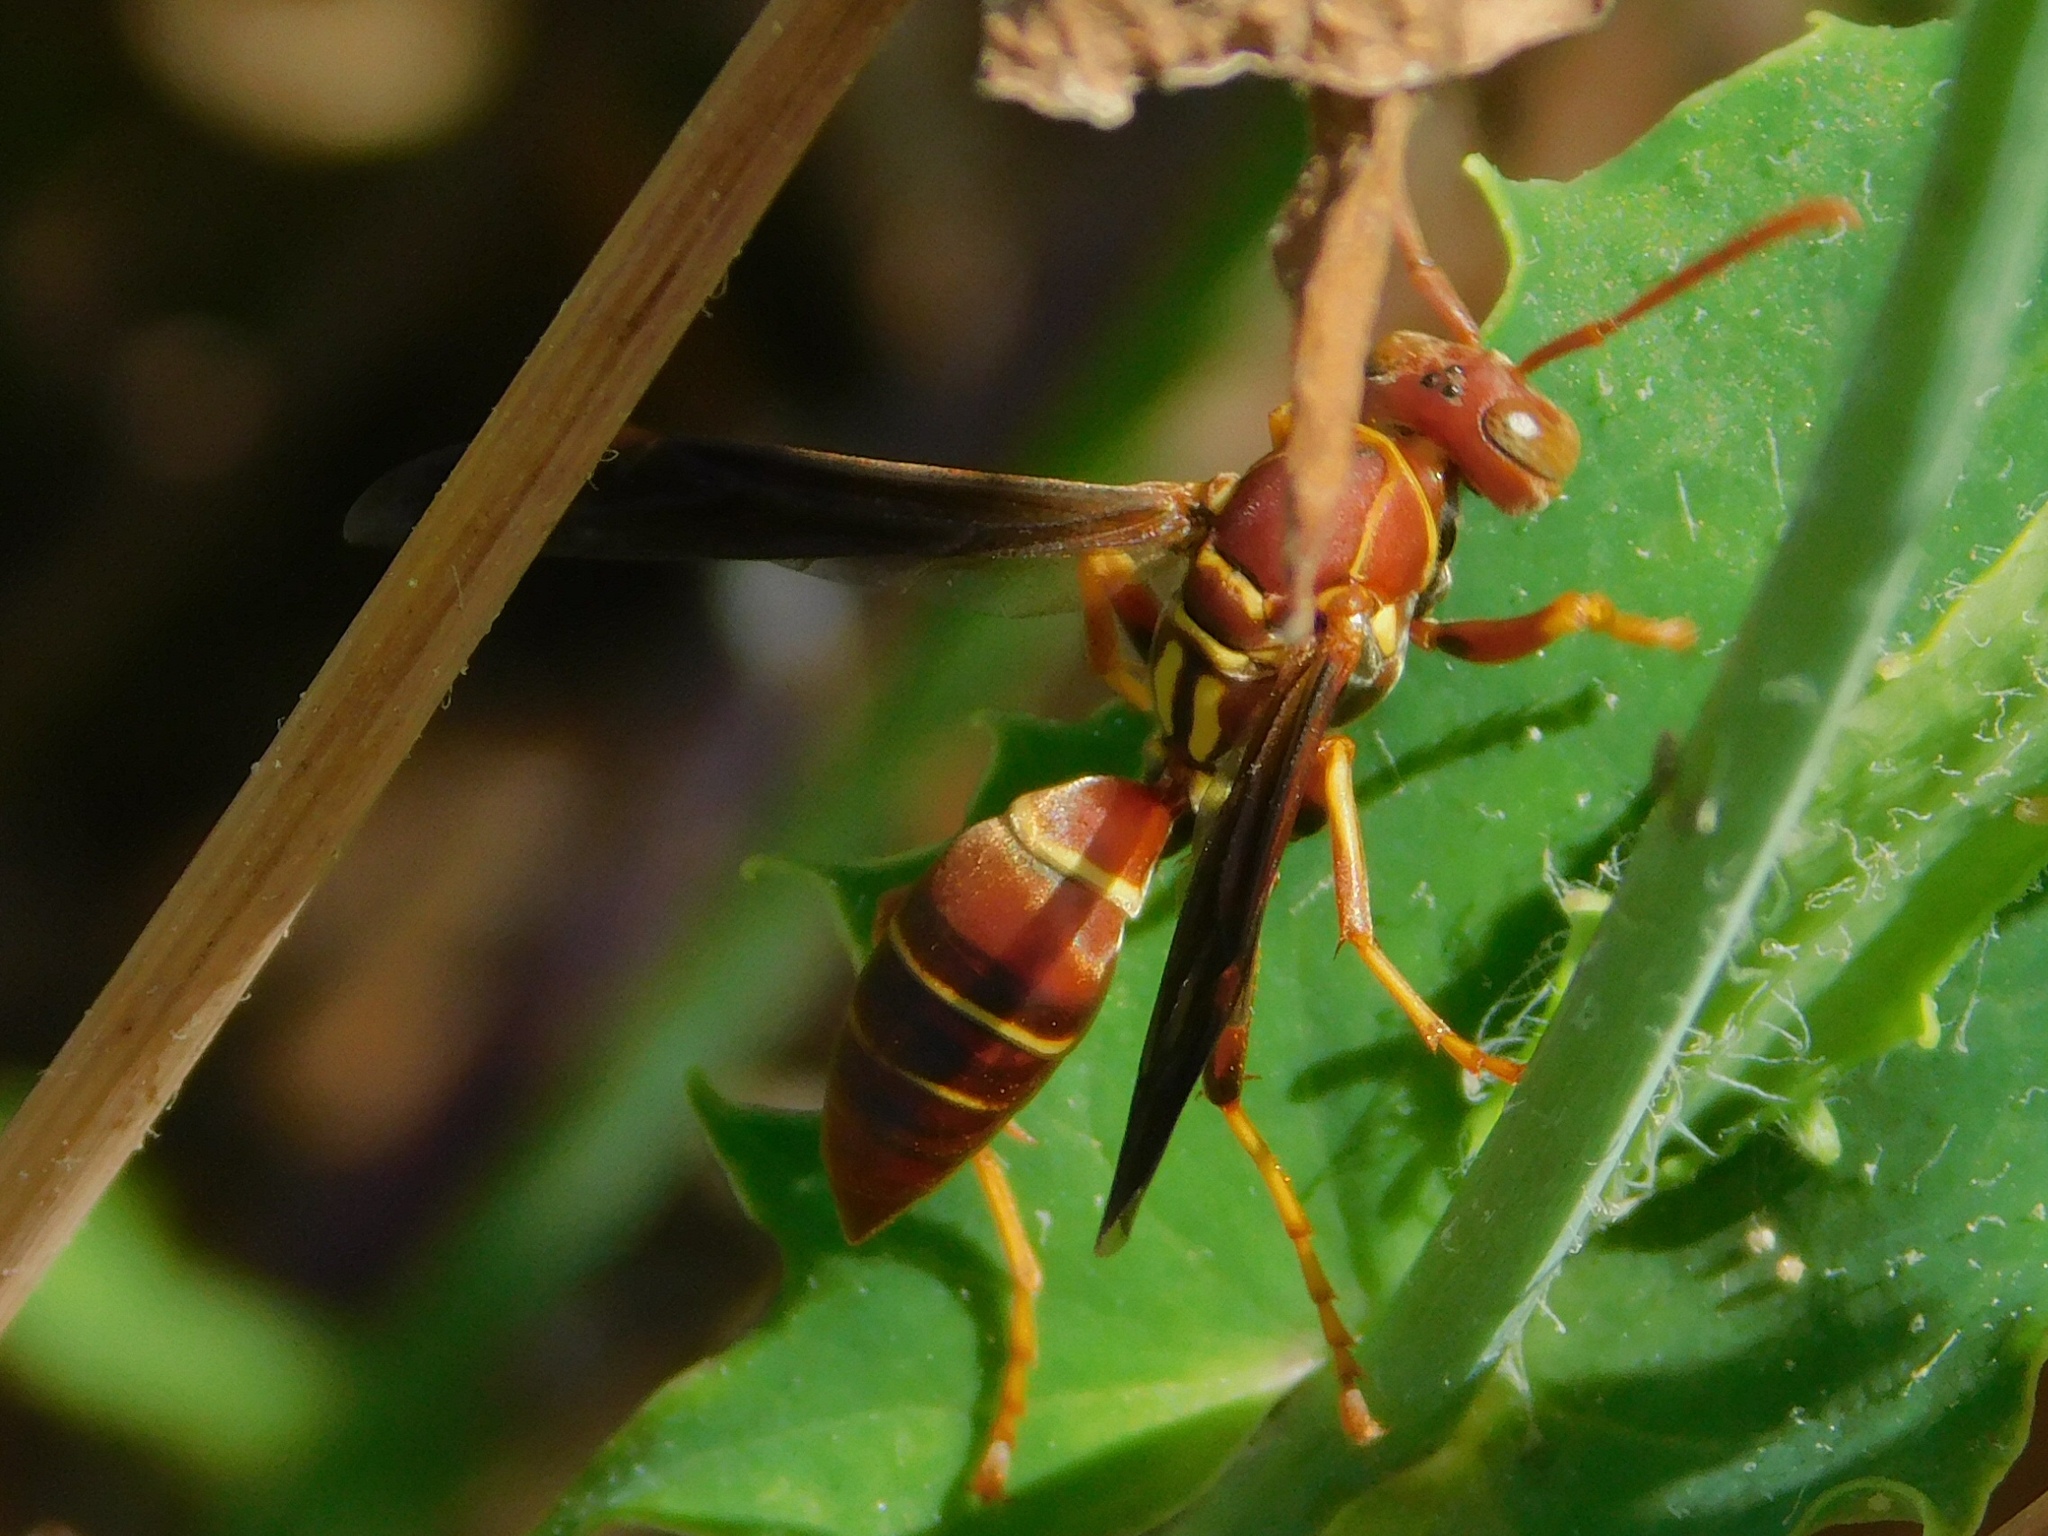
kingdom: Animalia
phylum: Arthropoda
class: Insecta
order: Hymenoptera
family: Eumenidae
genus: Polistes
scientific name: Polistes dorsalis
